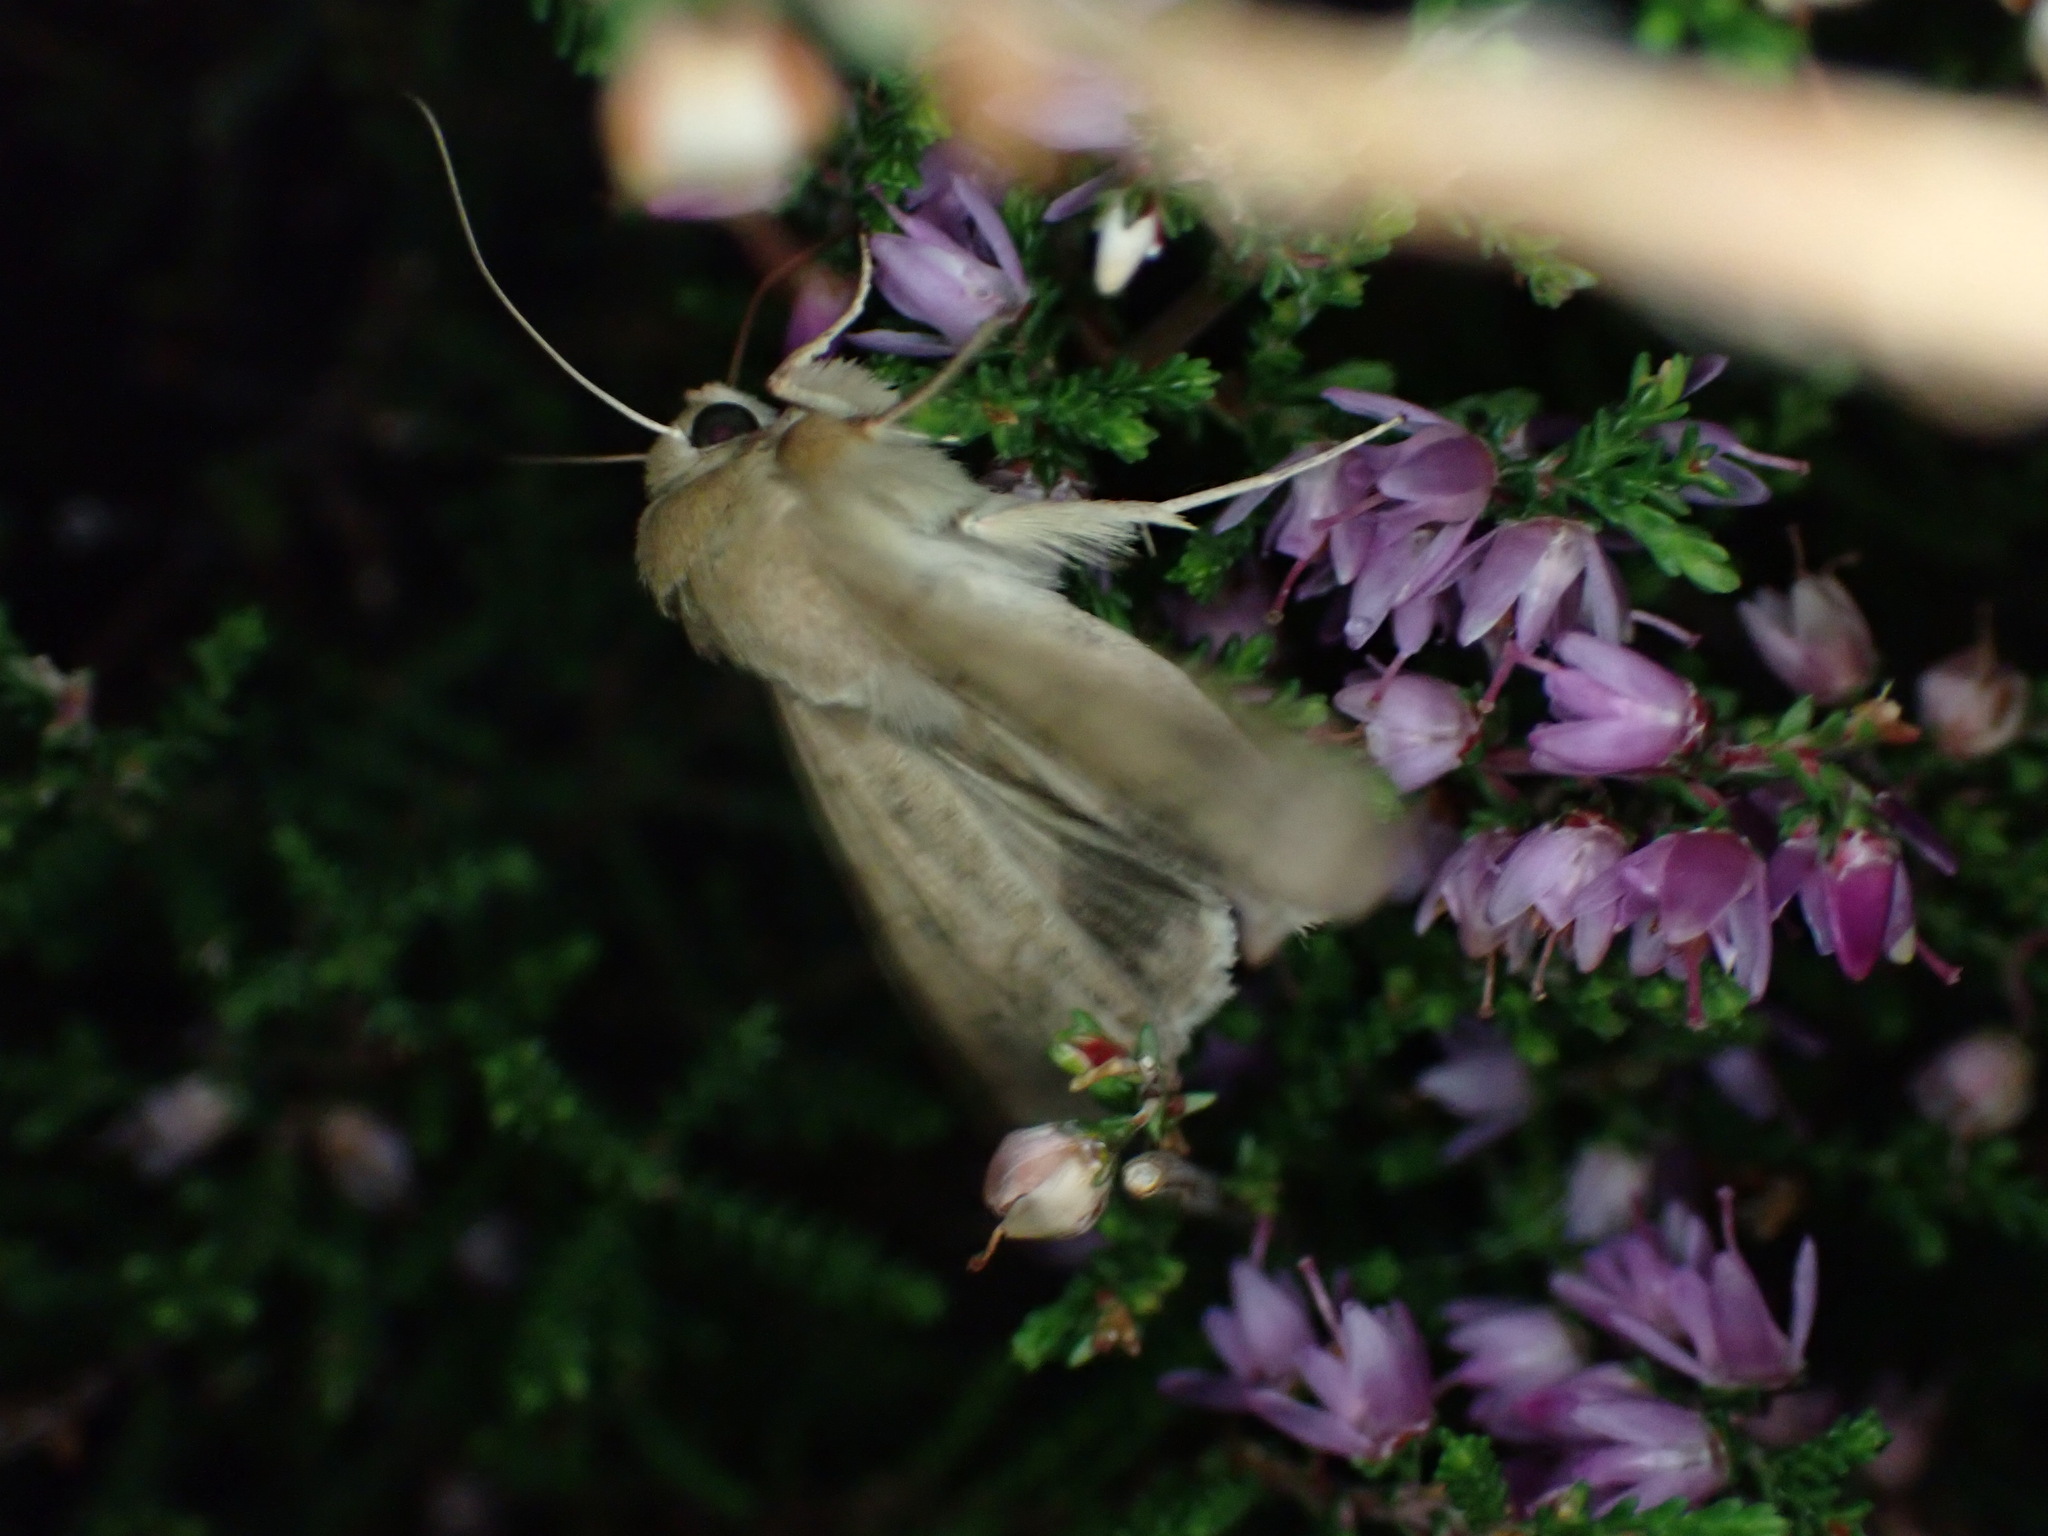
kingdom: Animalia
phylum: Arthropoda
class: Insecta
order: Lepidoptera
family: Noctuidae
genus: Helicoverpa
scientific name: Helicoverpa armigera
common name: Cotton bollworm
